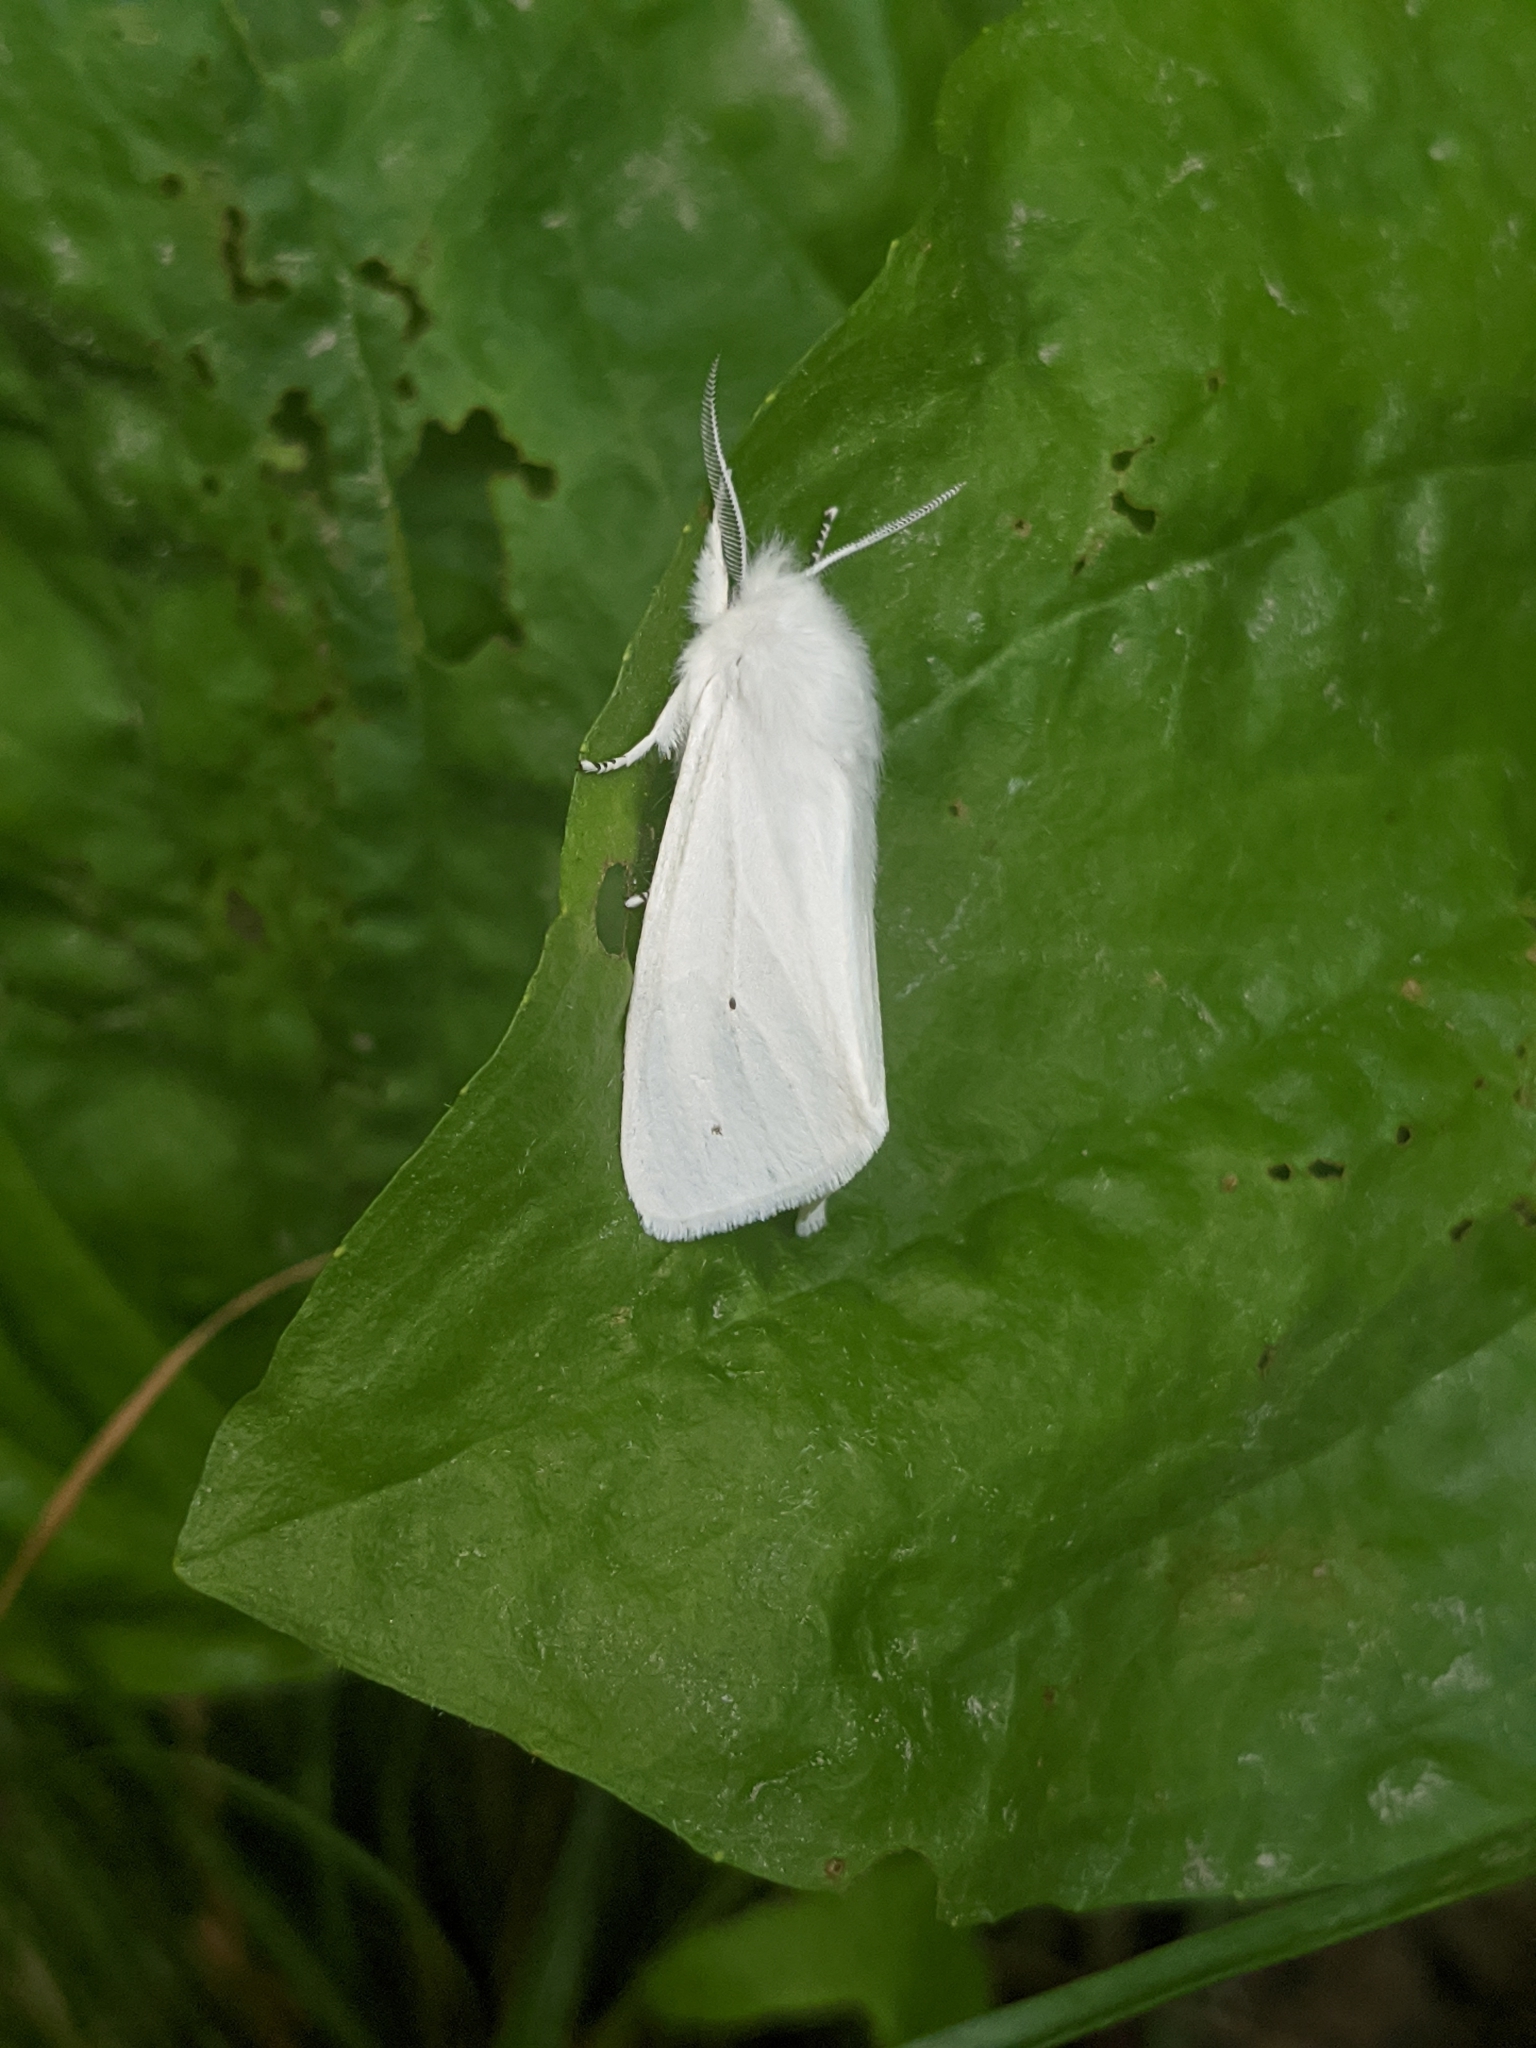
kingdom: Animalia
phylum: Arthropoda
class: Insecta
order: Lepidoptera
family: Erebidae
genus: Spilosoma
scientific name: Spilosoma virginica
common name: Virginia tiger moth
